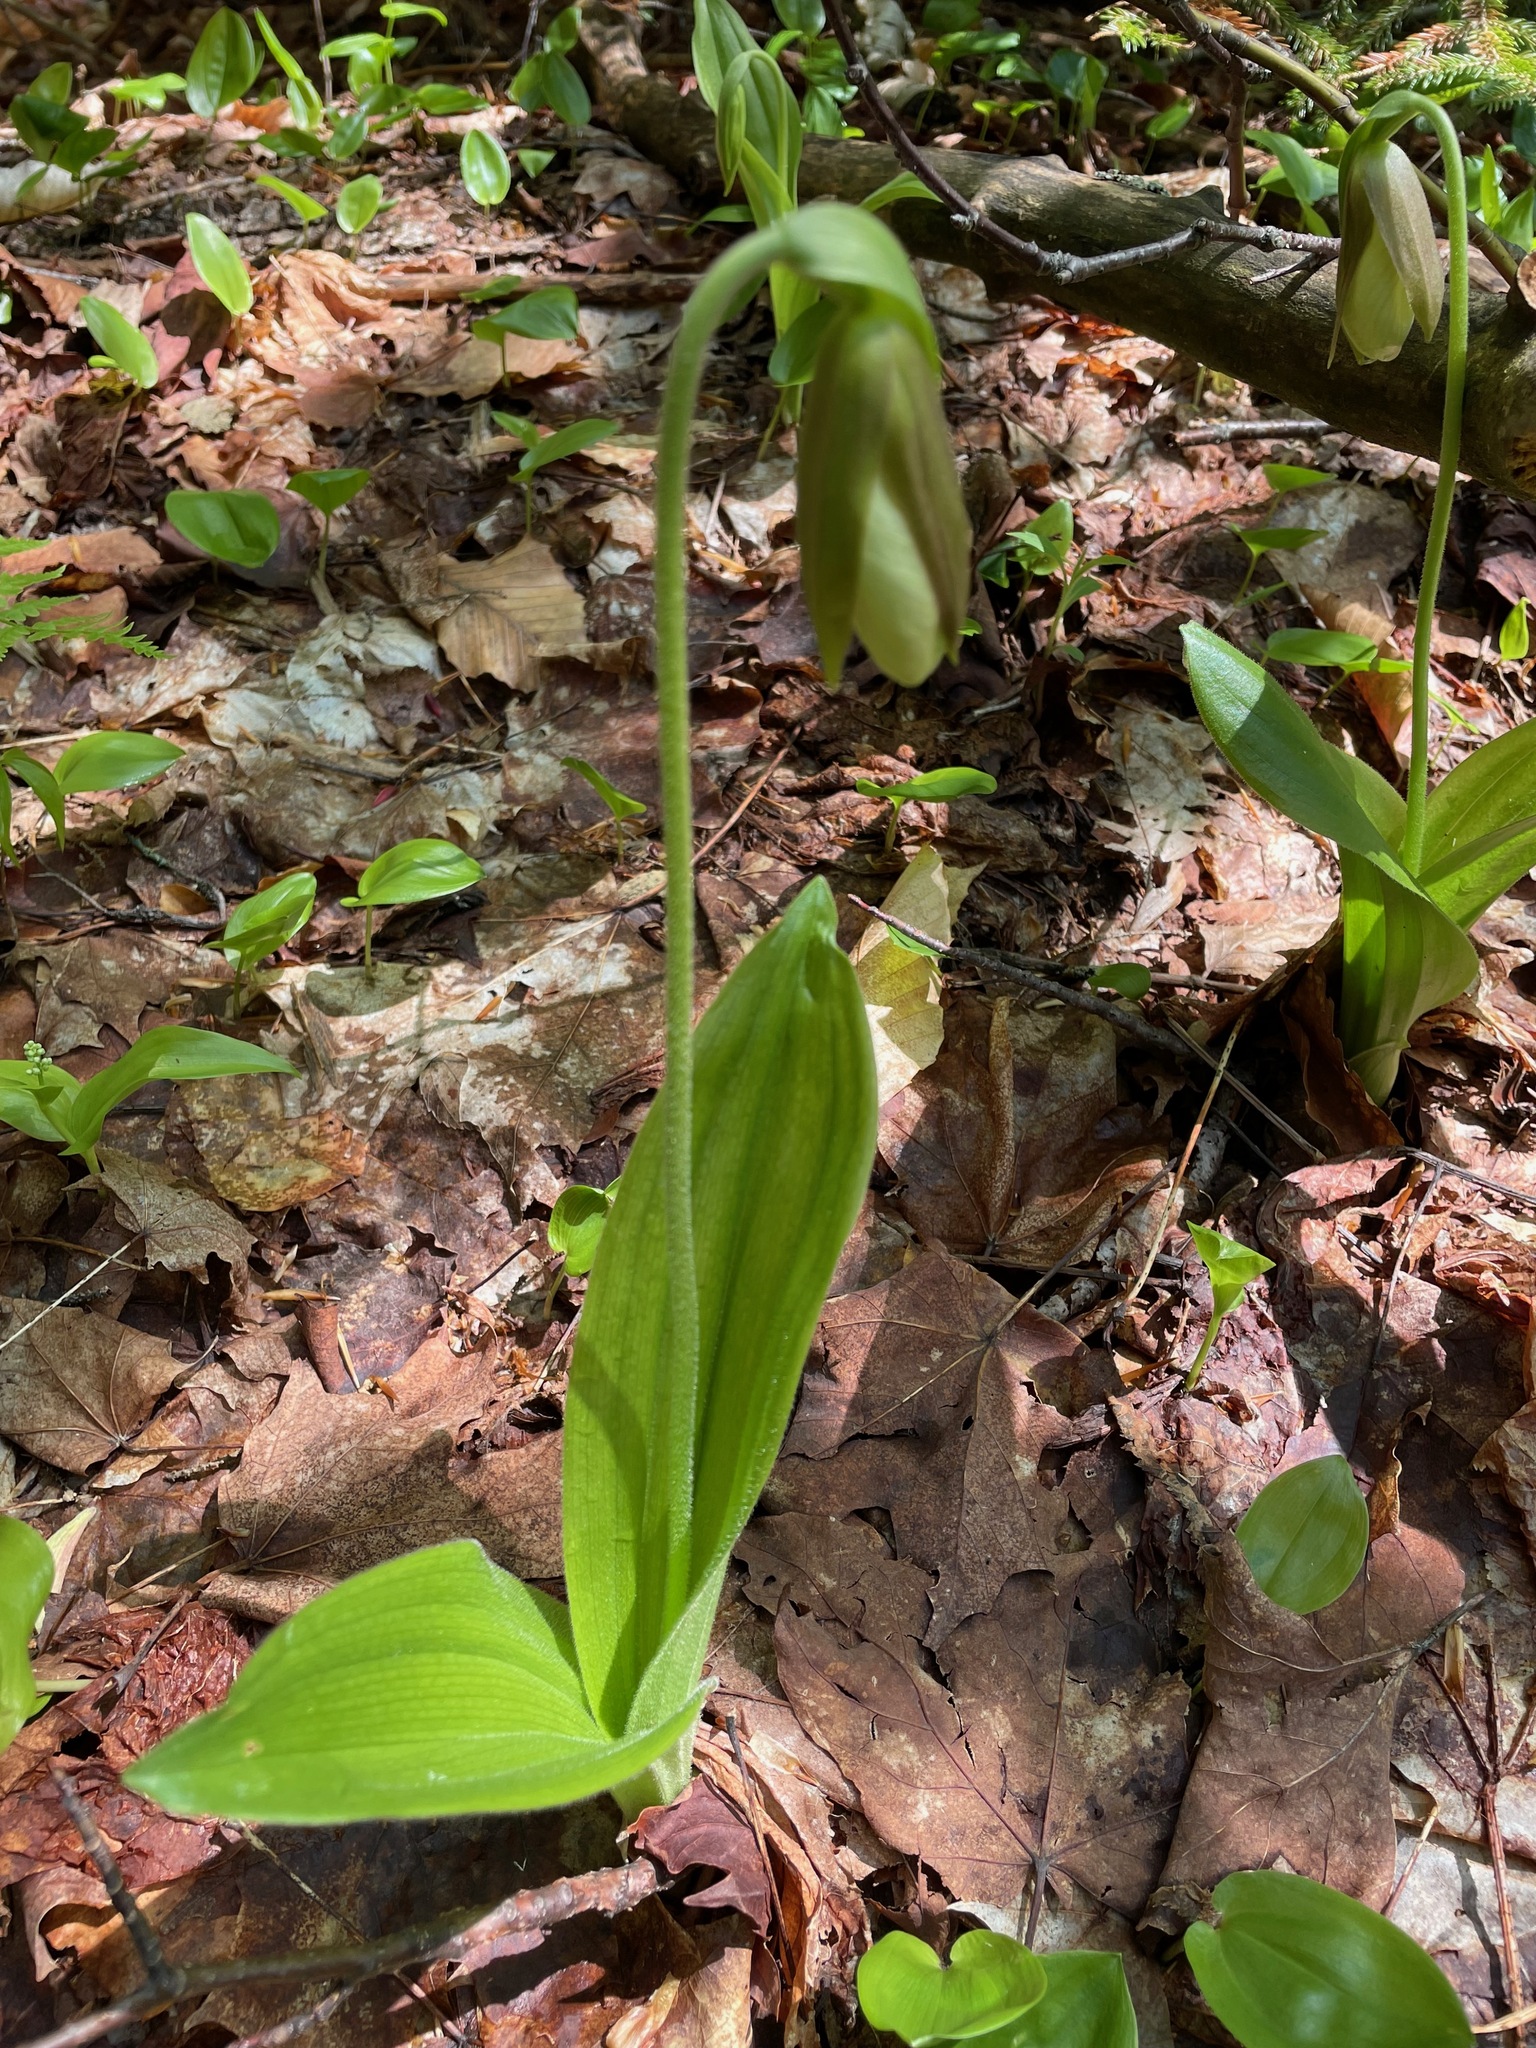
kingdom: Plantae
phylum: Tracheophyta
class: Liliopsida
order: Asparagales
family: Orchidaceae
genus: Cypripedium
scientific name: Cypripedium acaule
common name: Pink lady's-slipper
